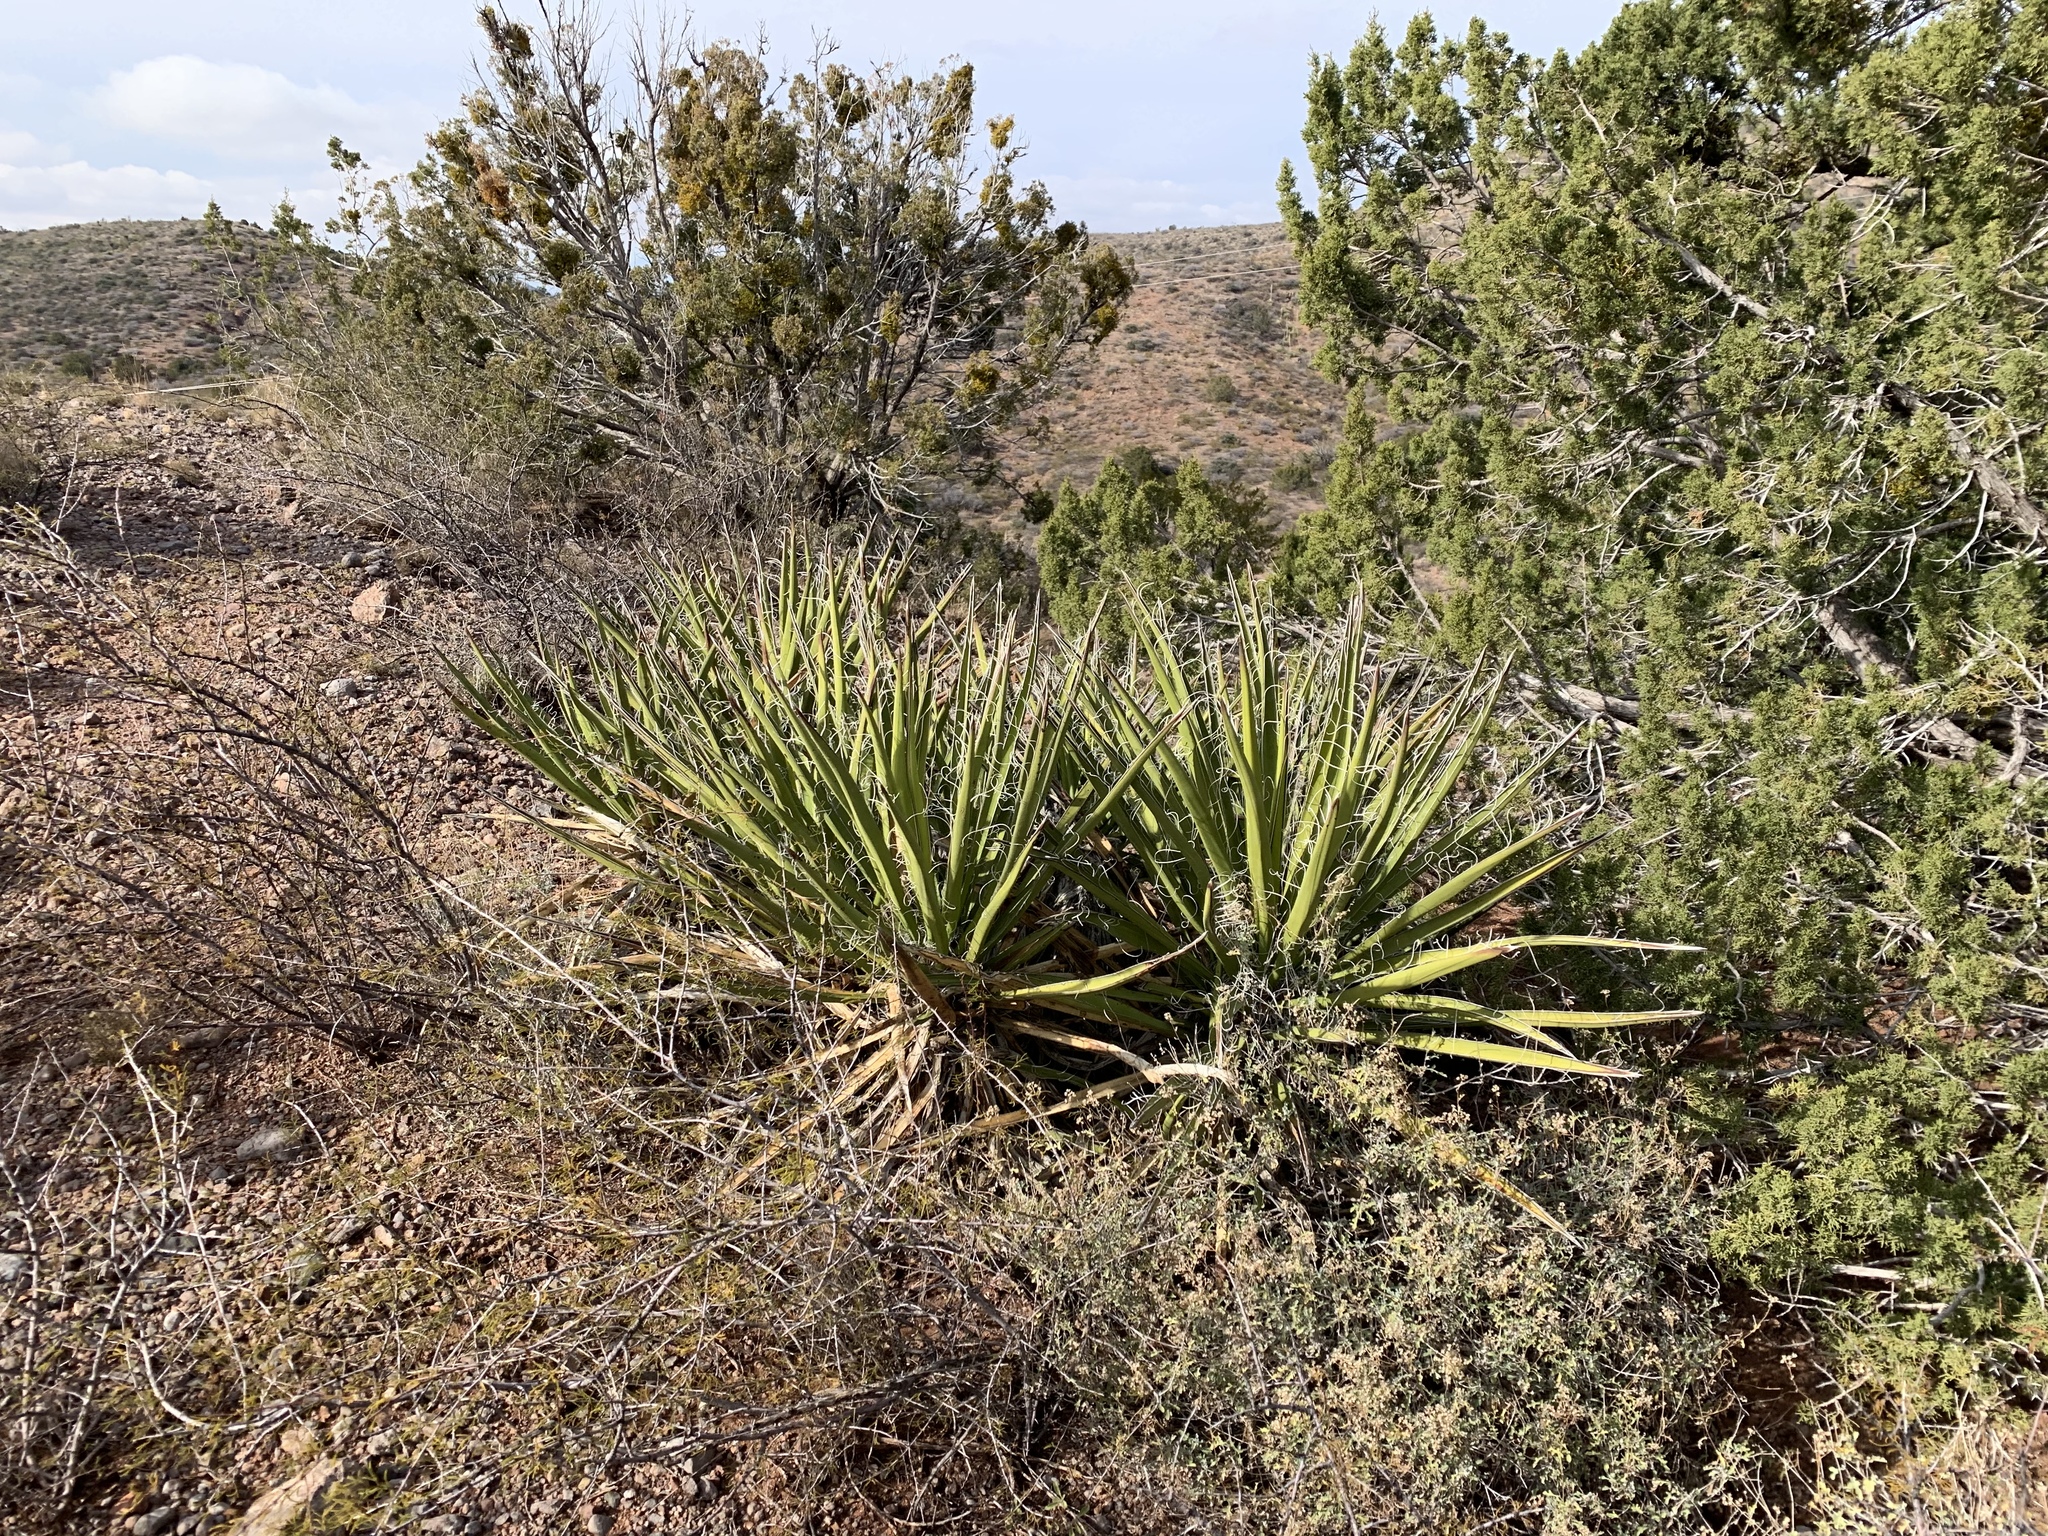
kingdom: Plantae
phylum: Tracheophyta
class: Liliopsida
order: Asparagales
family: Asparagaceae
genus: Yucca
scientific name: Yucca baccata
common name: Banana yucca
